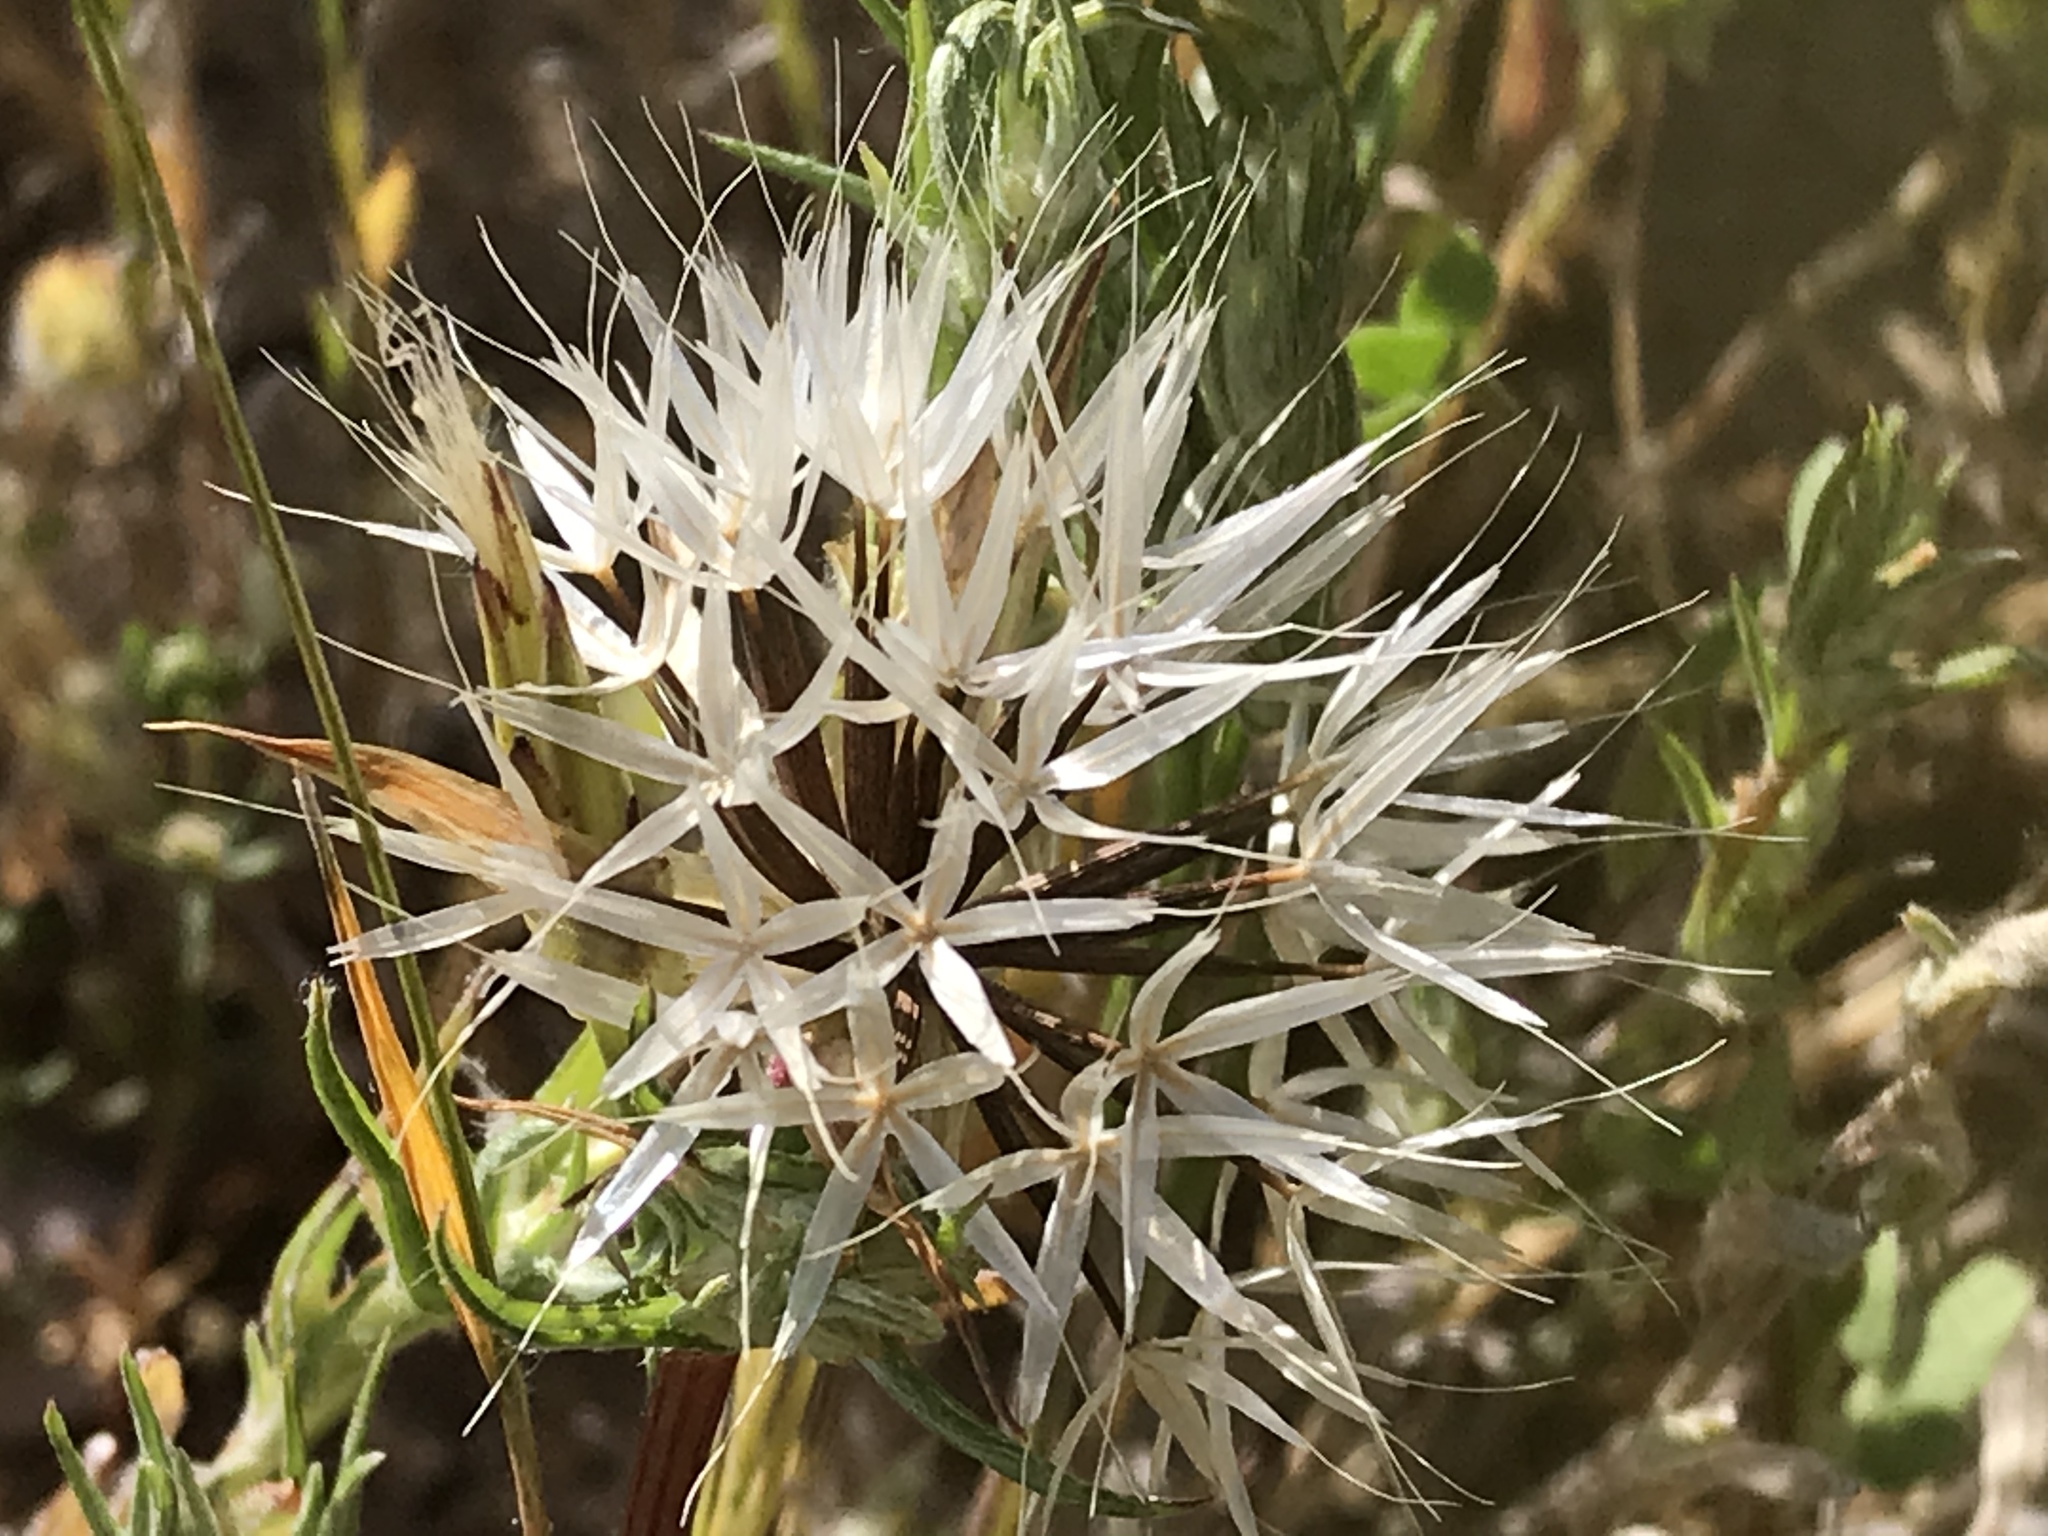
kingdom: Plantae
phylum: Tracheophyta
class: Magnoliopsida
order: Asterales
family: Asteraceae
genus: Microseris
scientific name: Microseris lindleyi
